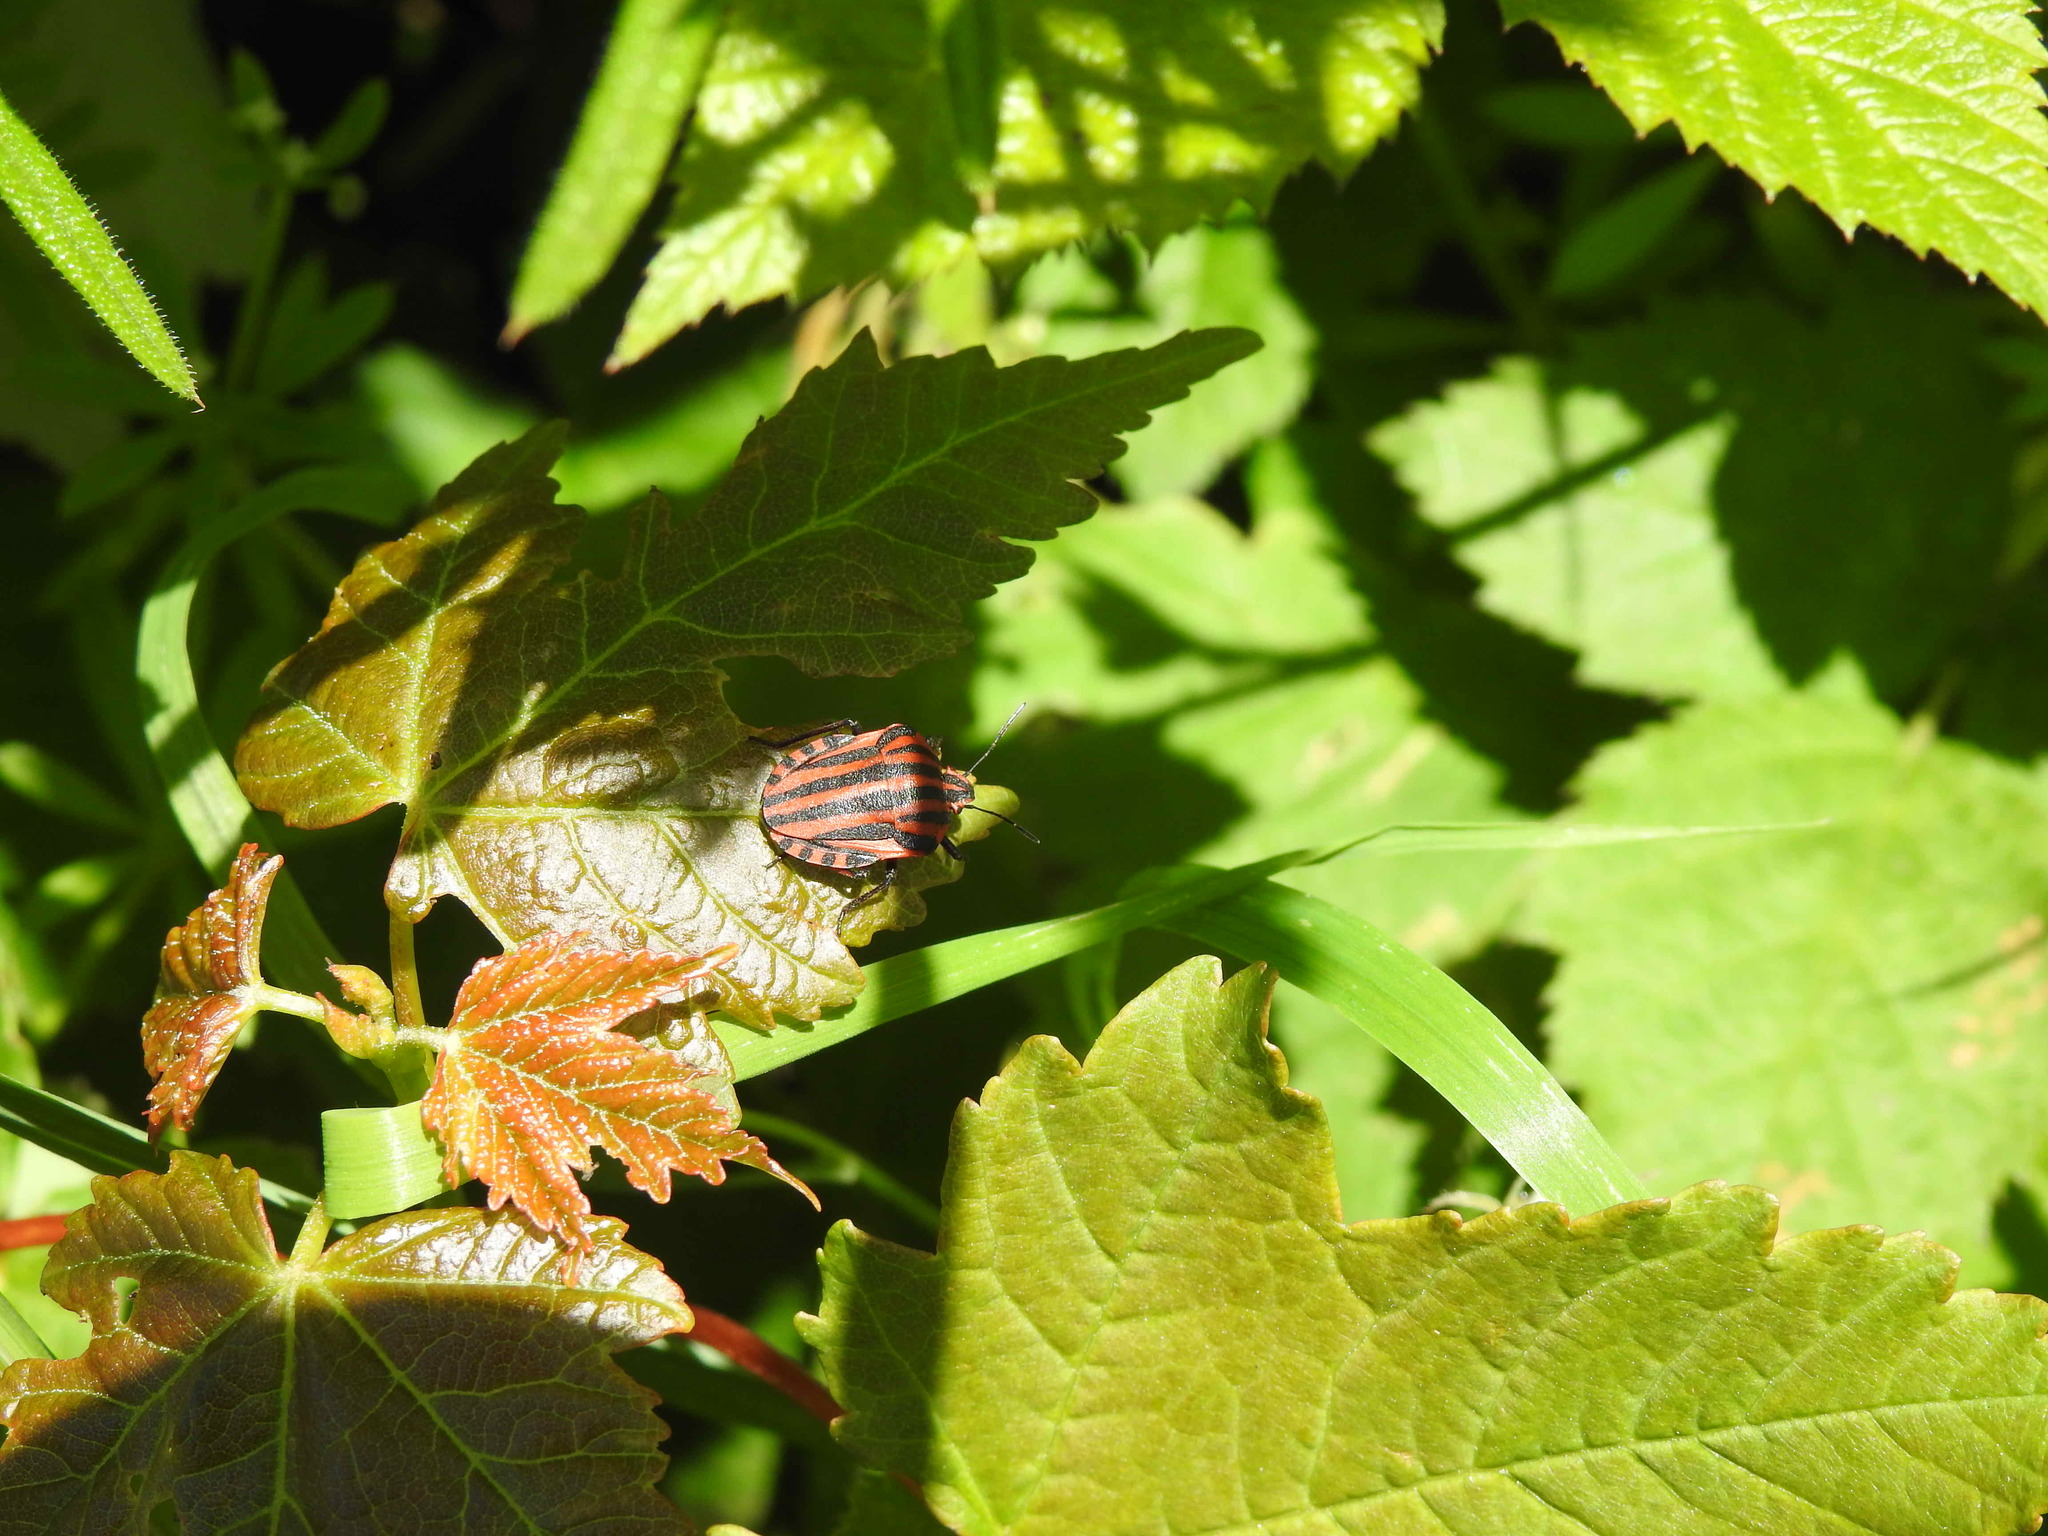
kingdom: Animalia
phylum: Arthropoda
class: Insecta
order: Hemiptera
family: Pentatomidae
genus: Graphosoma
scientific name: Graphosoma italicum
